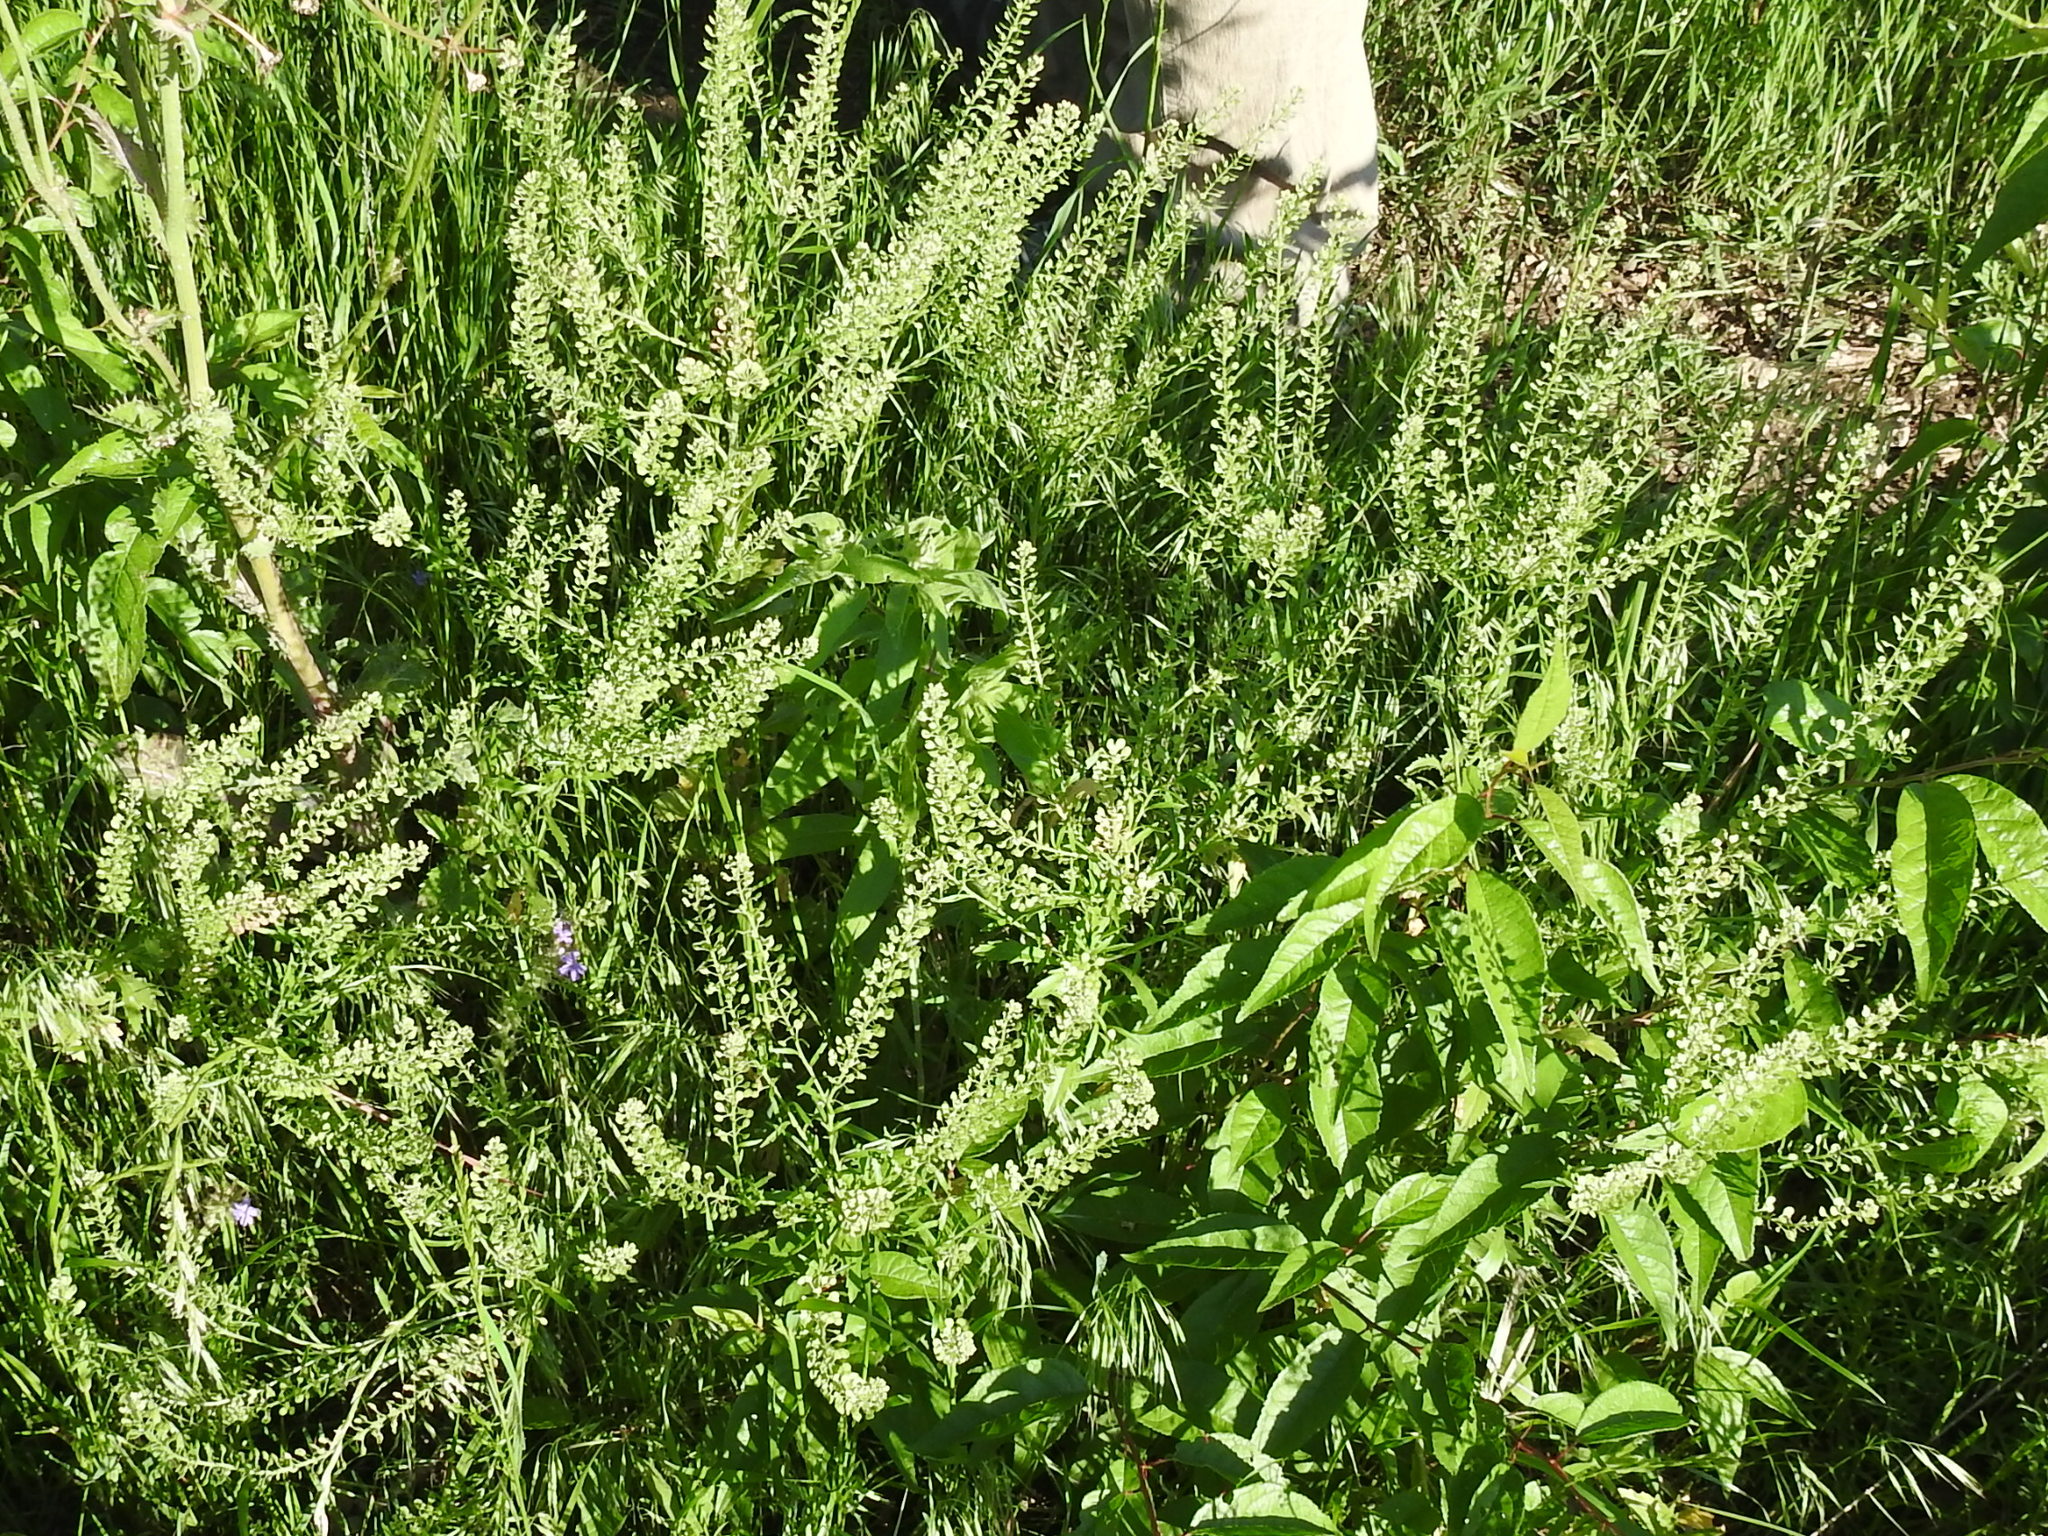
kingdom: Plantae
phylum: Tracheophyta
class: Magnoliopsida
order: Brassicales
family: Brassicaceae
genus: Lepidium
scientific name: Lepidium virginicum
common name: Least pepperwort
